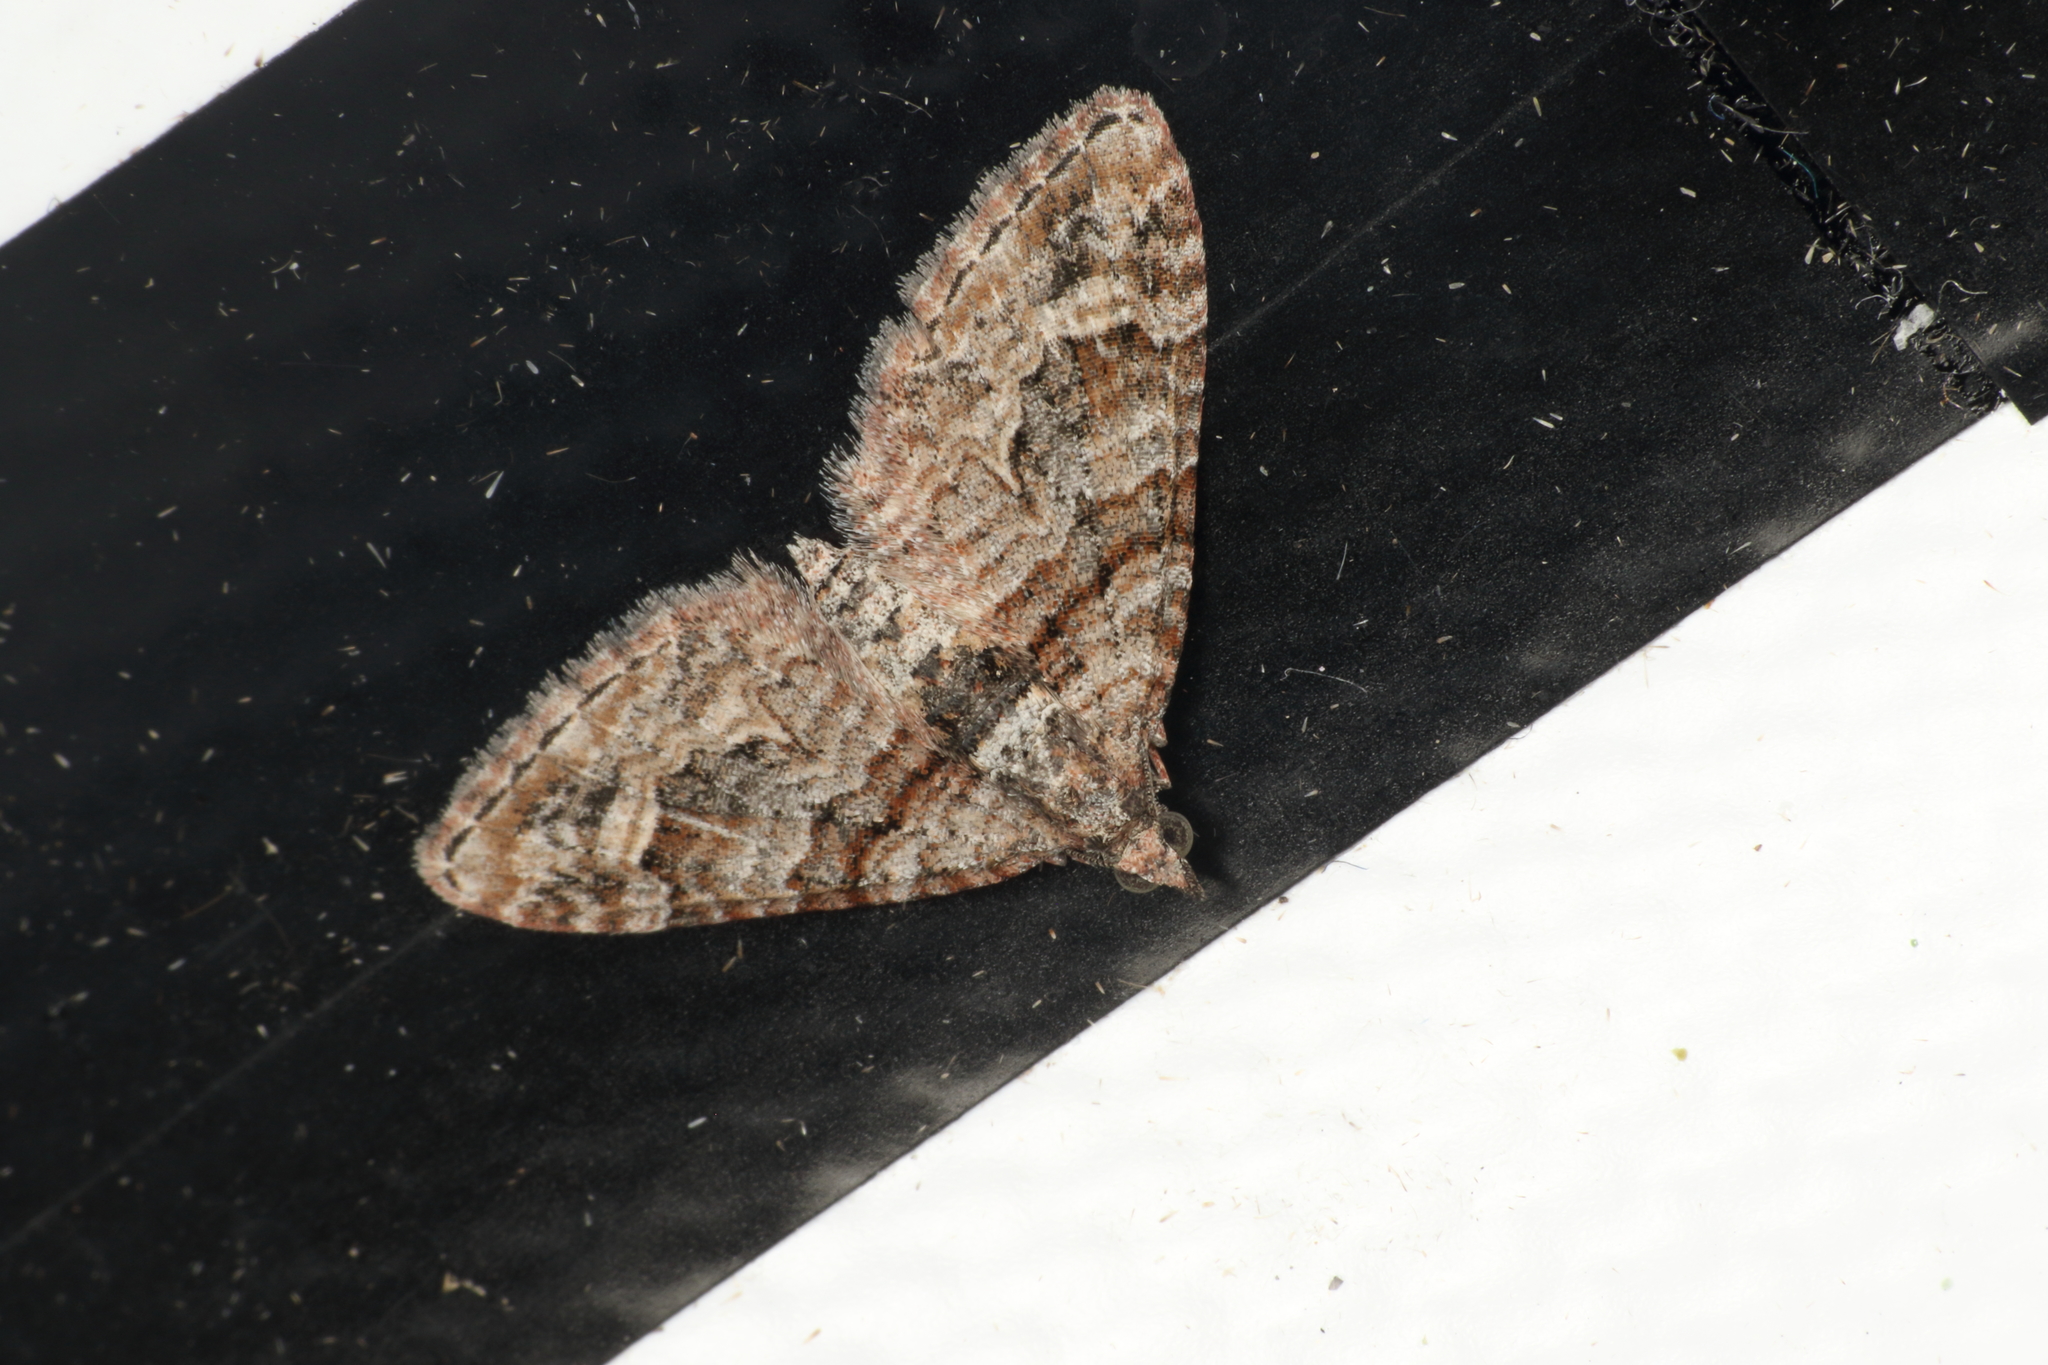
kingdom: Animalia
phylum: Arthropoda
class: Insecta
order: Lepidoptera
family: Geometridae
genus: Phrissogonus
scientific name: Phrissogonus laticostata
